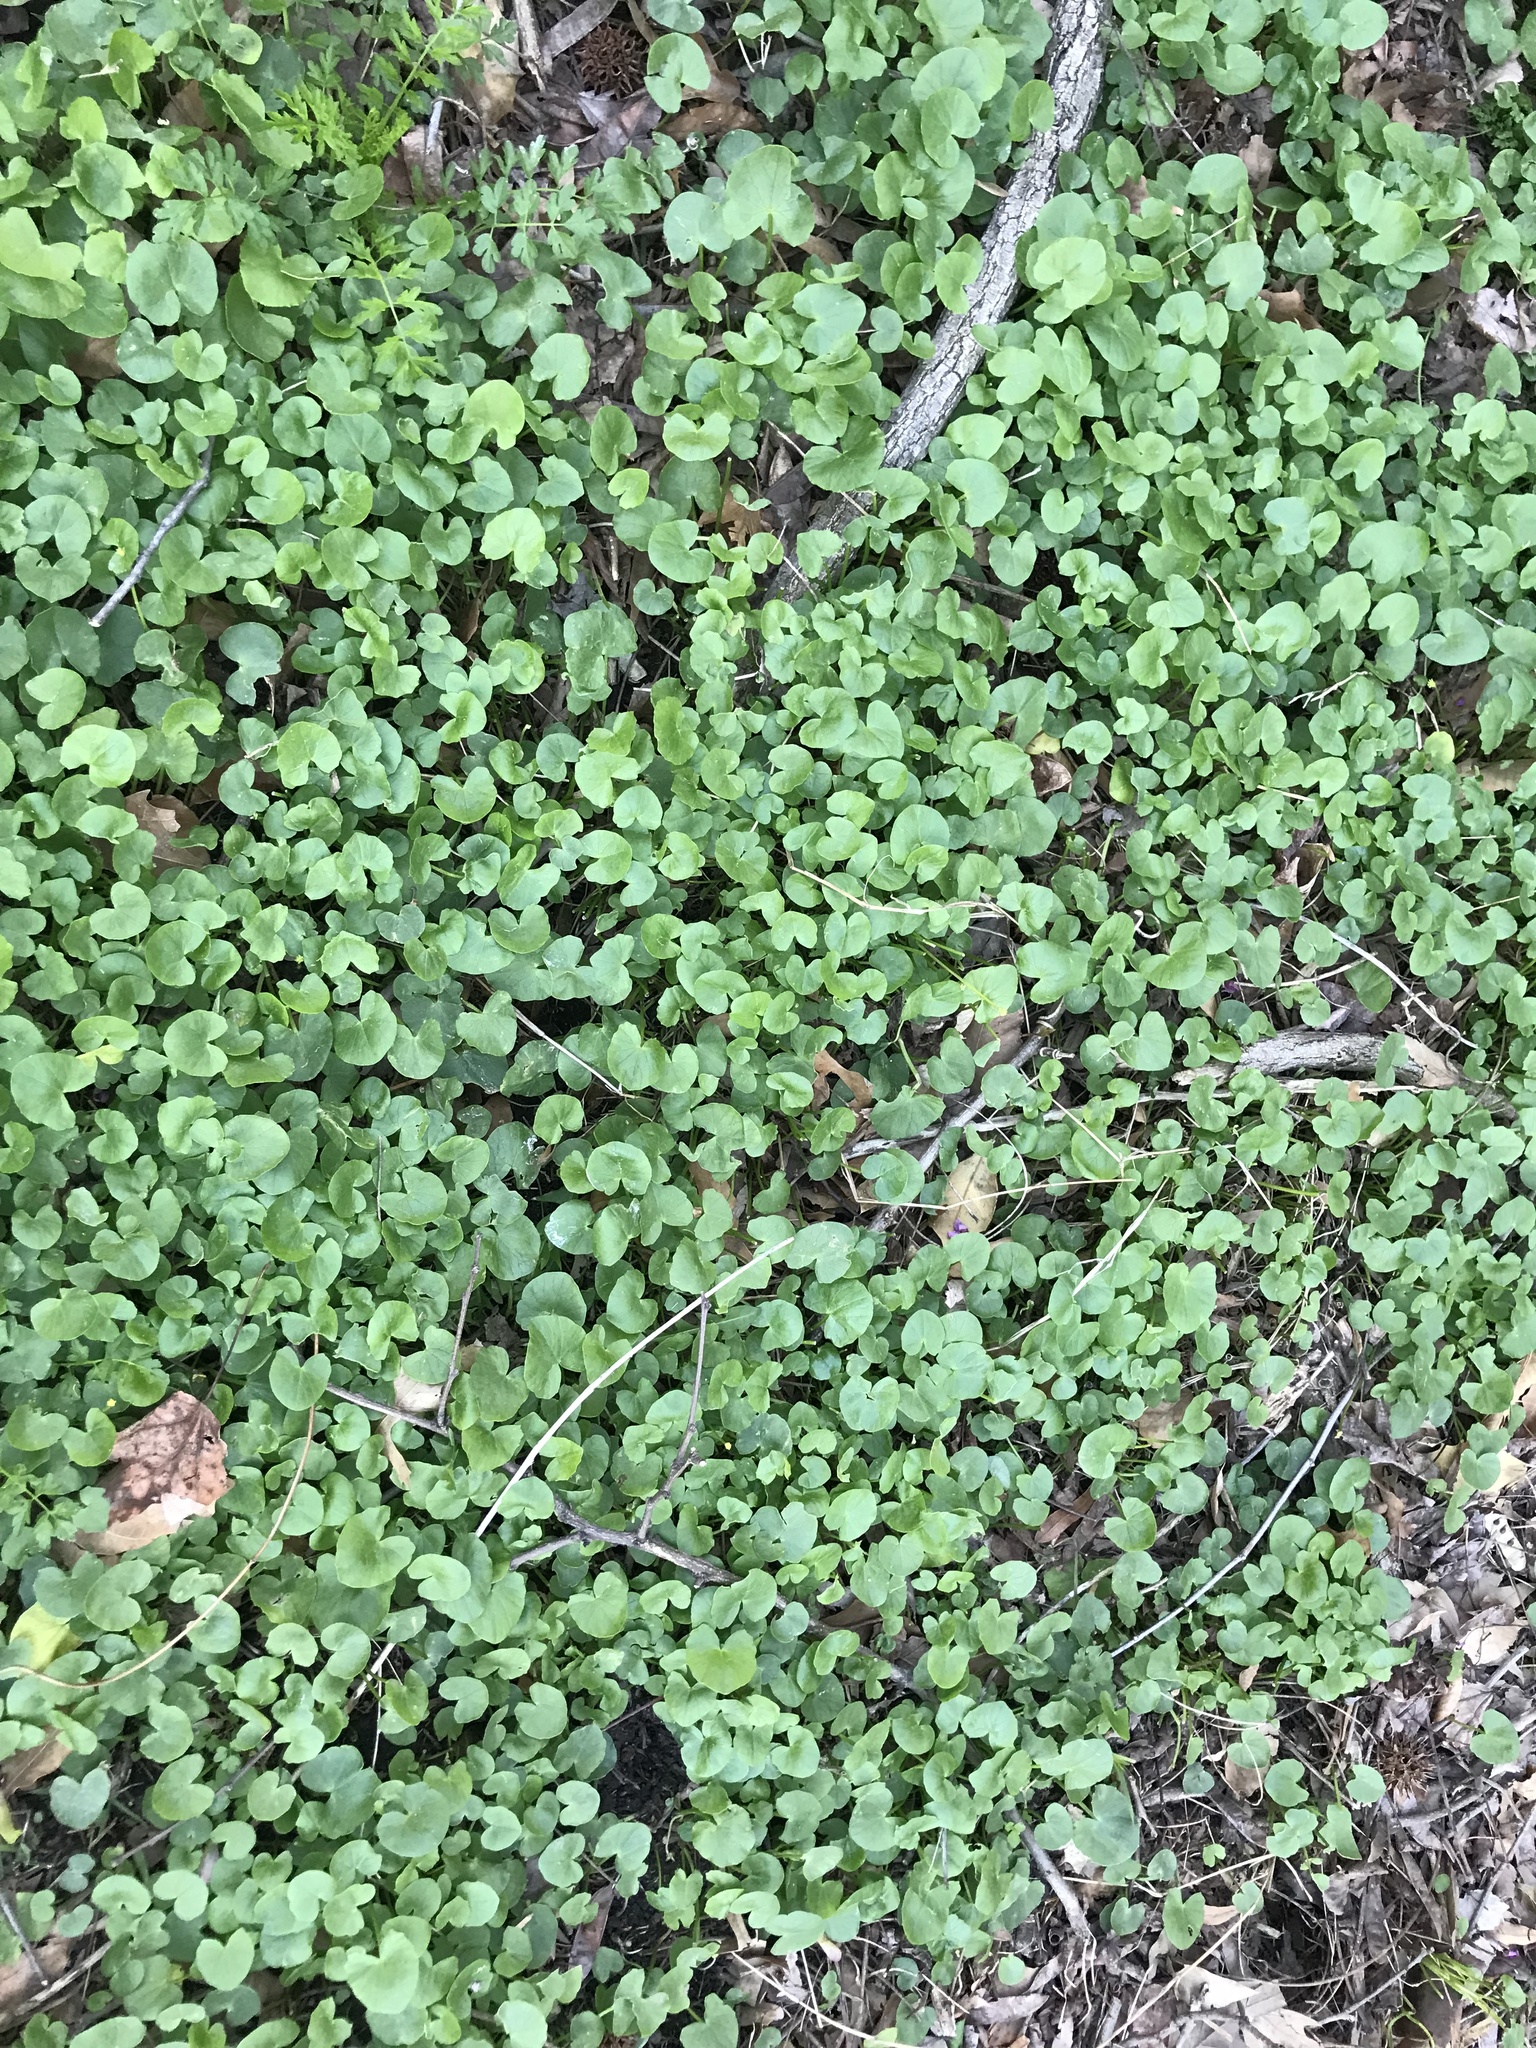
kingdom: Plantae
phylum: Tracheophyta
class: Magnoliopsida
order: Ranunculales
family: Ranunculaceae
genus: Ficaria
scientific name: Ficaria verna
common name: Lesser celandine
